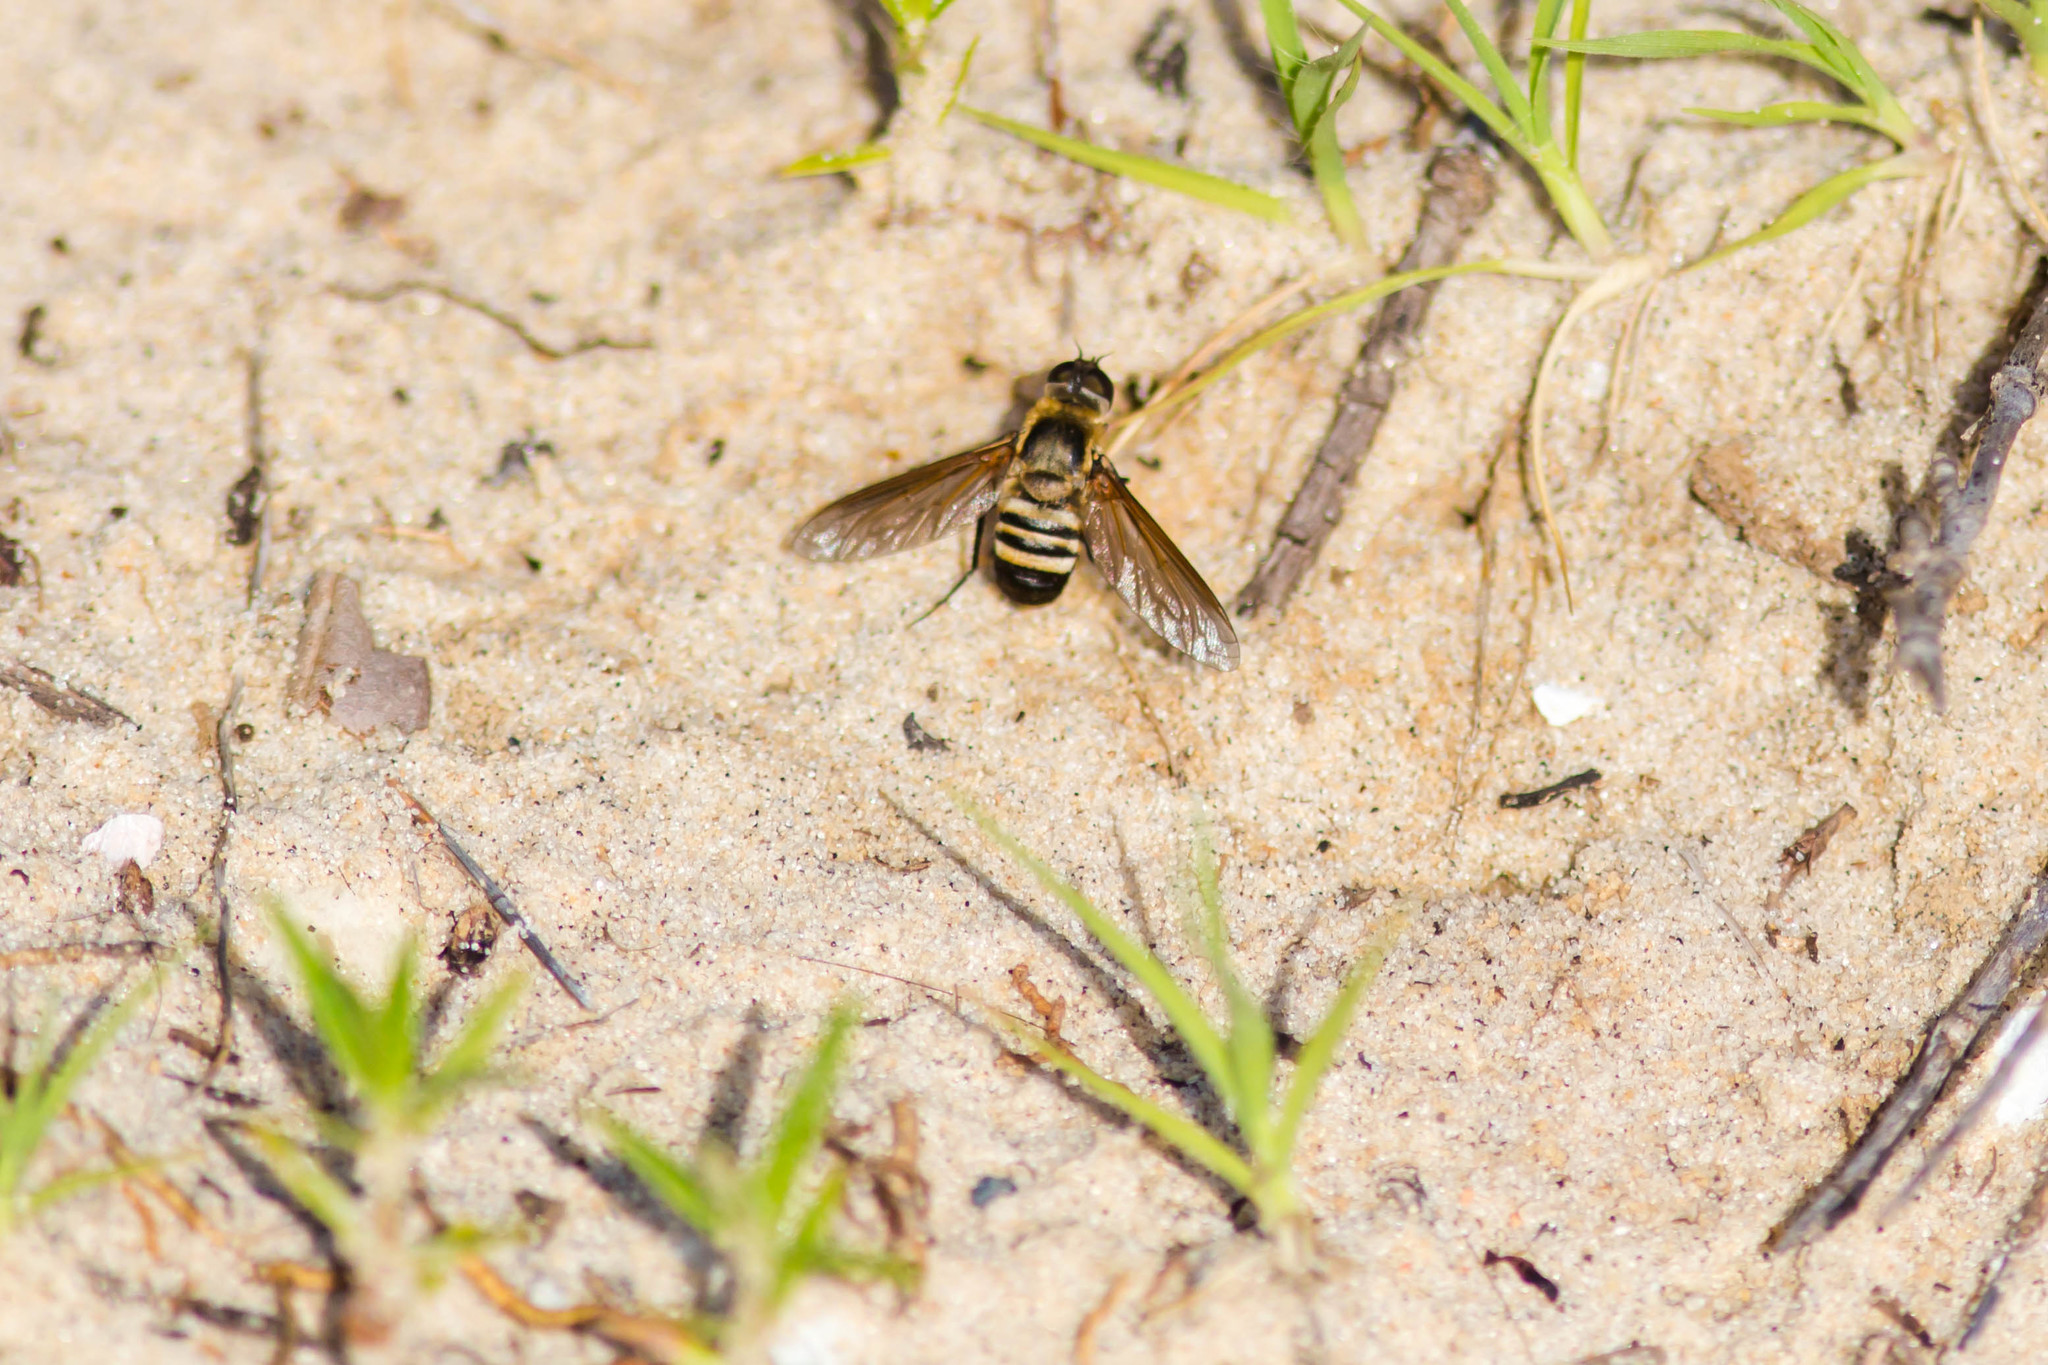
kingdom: Animalia
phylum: Arthropoda
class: Insecta
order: Diptera
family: Bombyliidae
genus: Exoprosopa
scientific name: Exoprosopa fasciata
